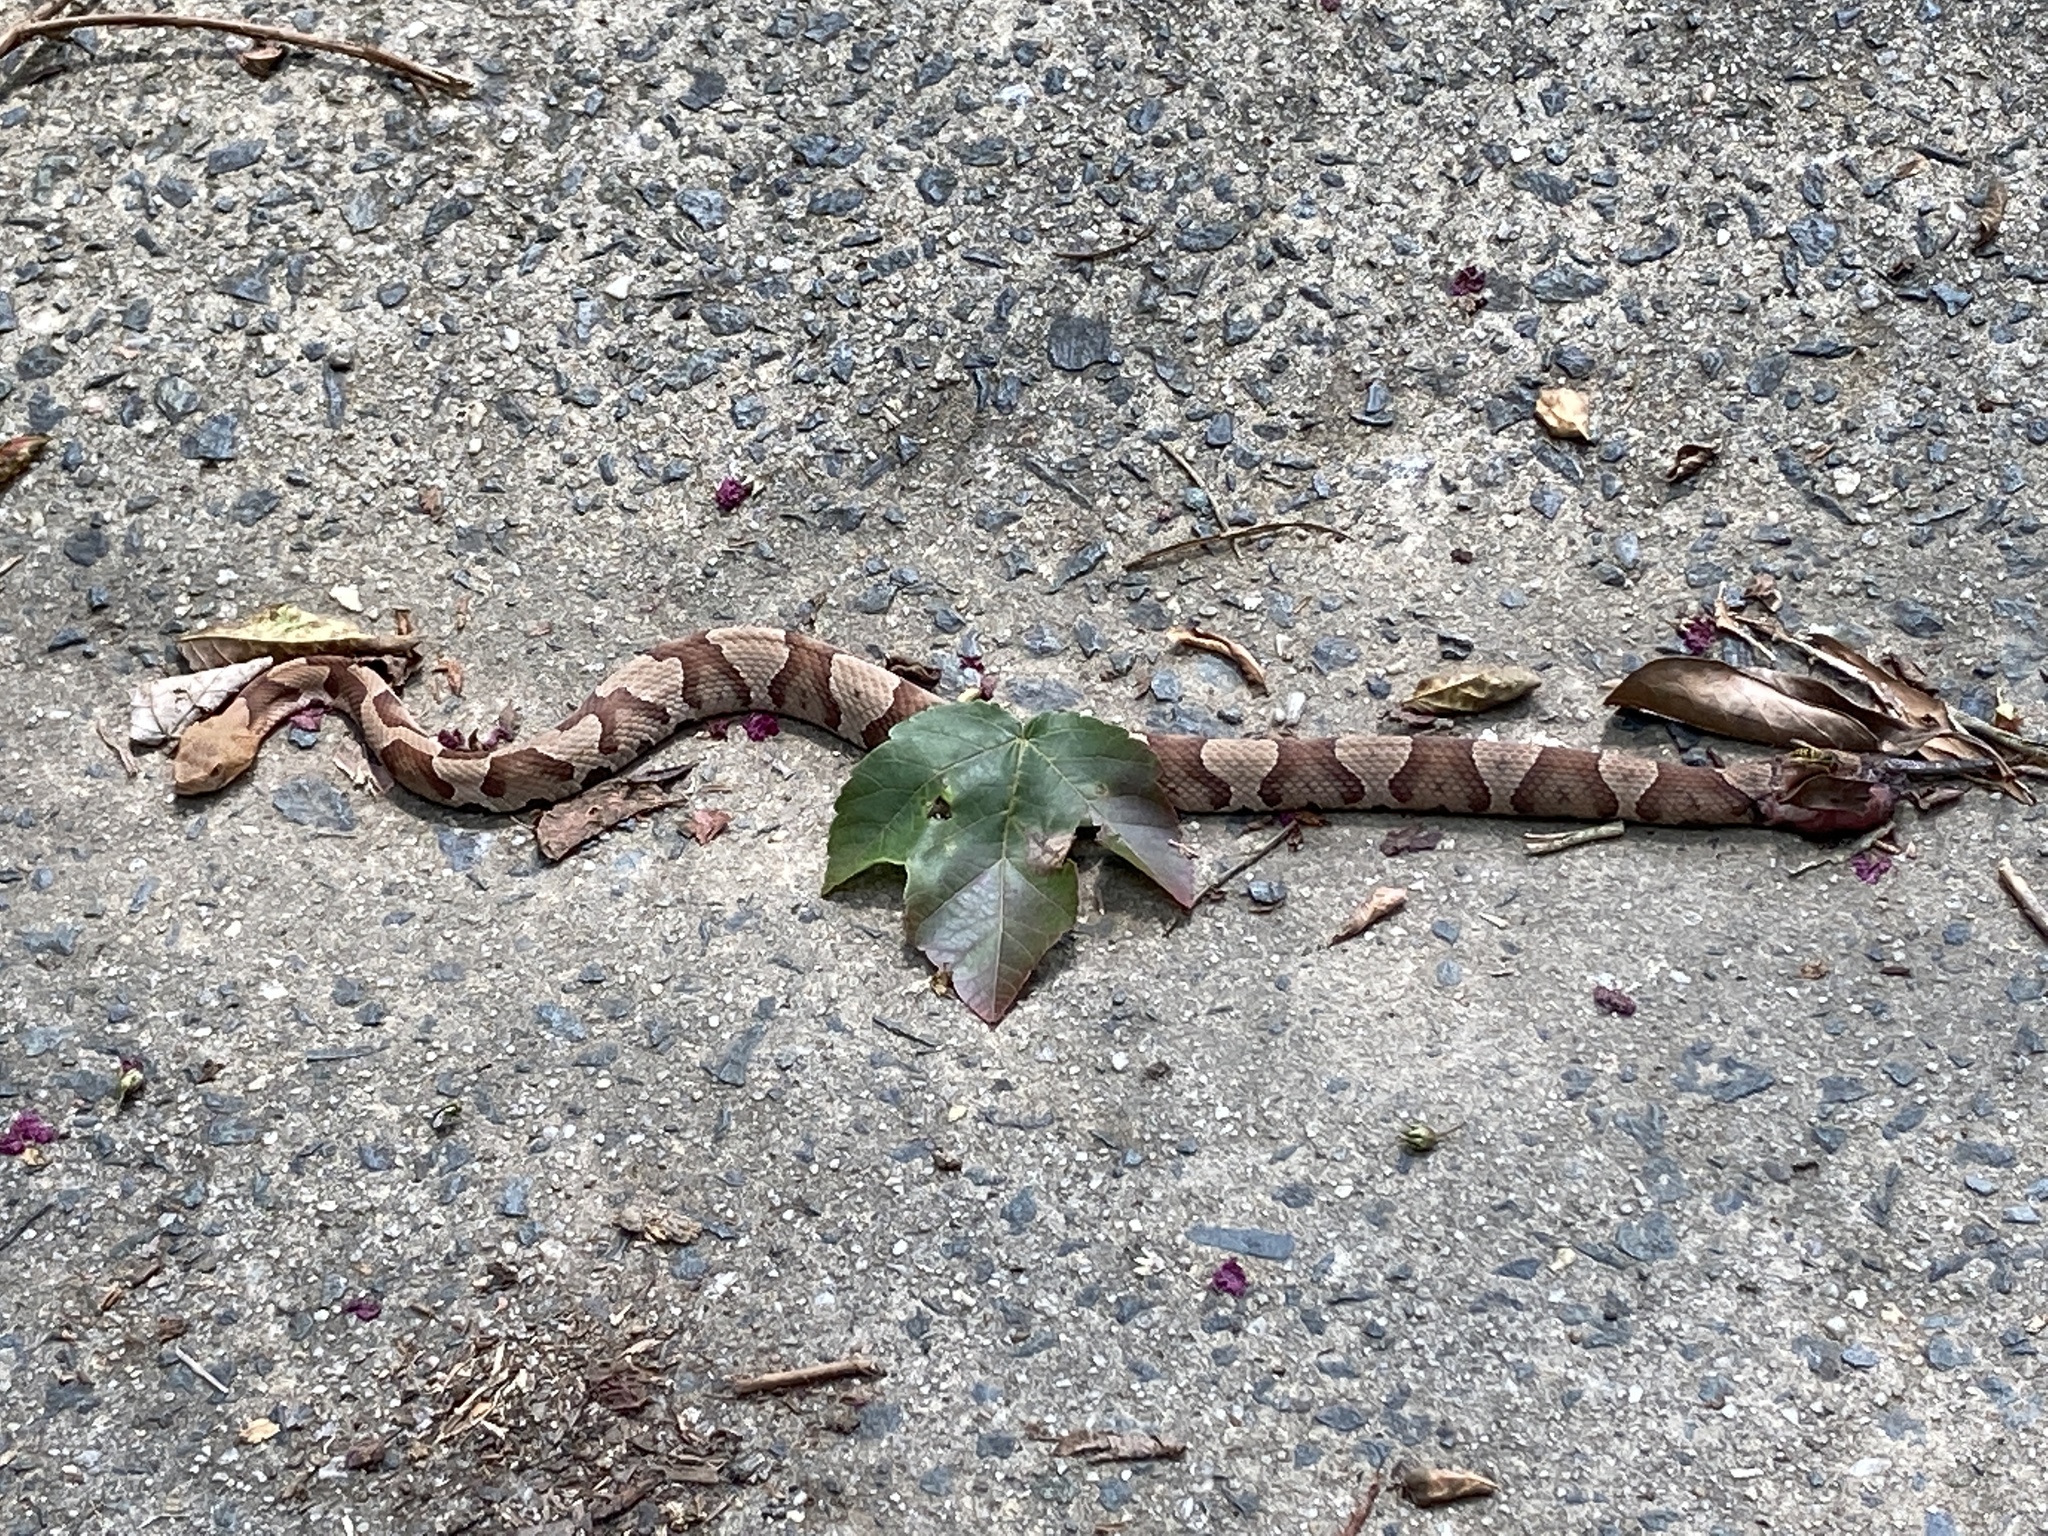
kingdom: Animalia
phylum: Chordata
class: Squamata
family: Viperidae
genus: Agkistrodon
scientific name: Agkistrodon contortrix
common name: Northern copperhead
